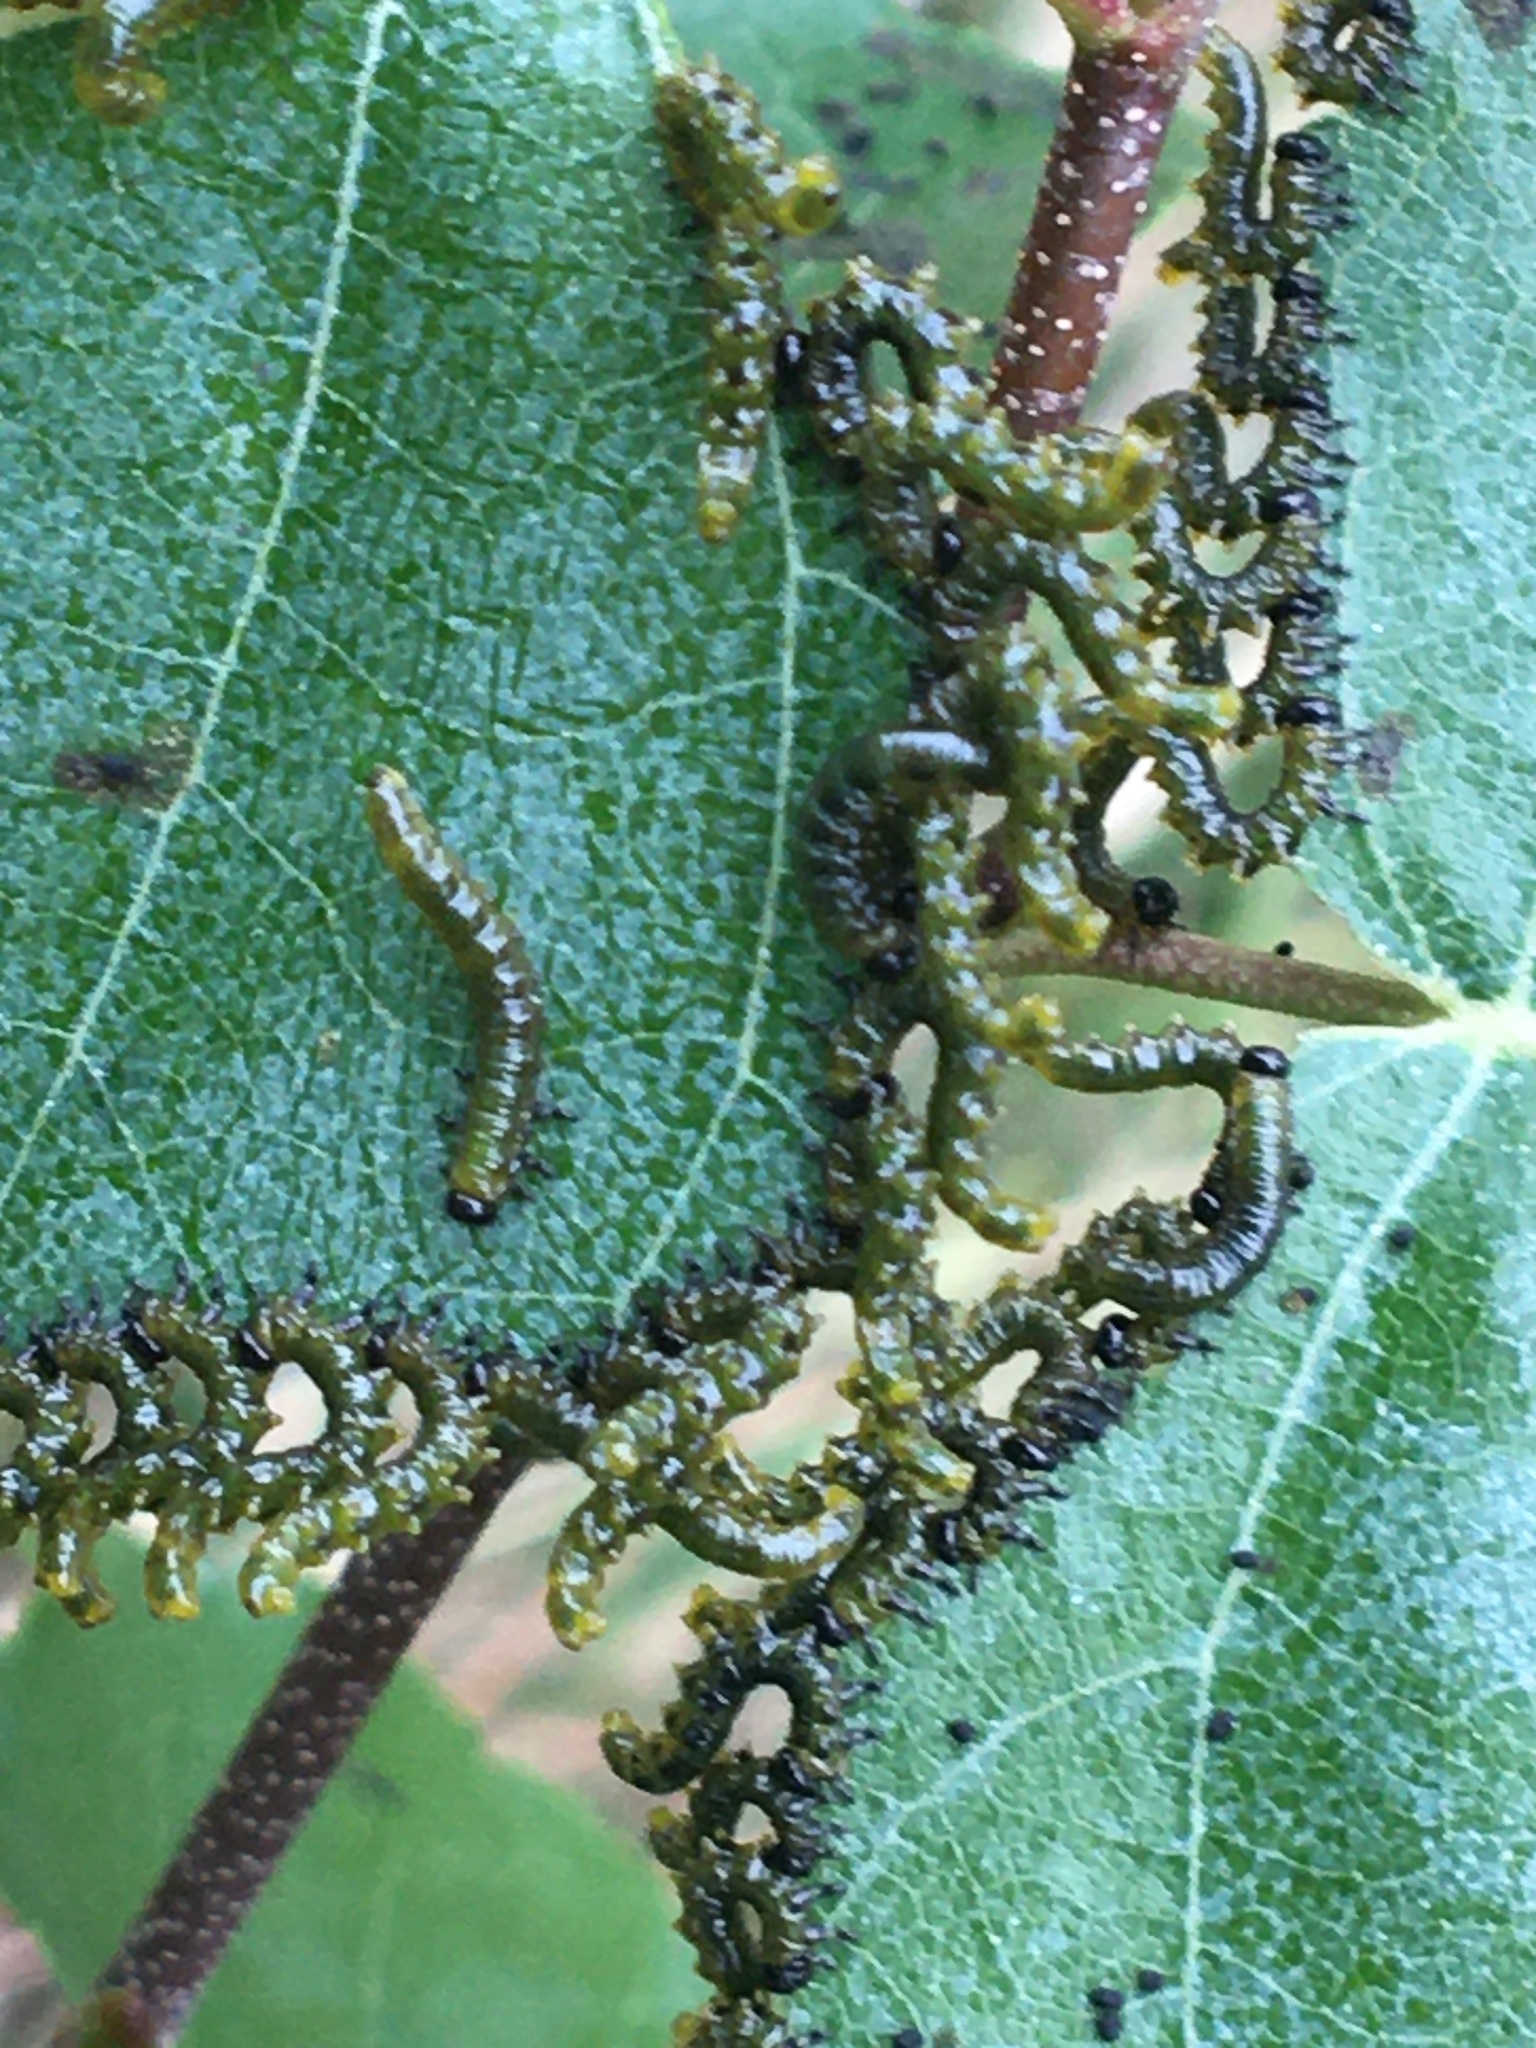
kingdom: Animalia
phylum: Arthropoda
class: Insecta
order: Hymenoptera
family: Tenthredinidae
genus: Nematus
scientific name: Nematus
